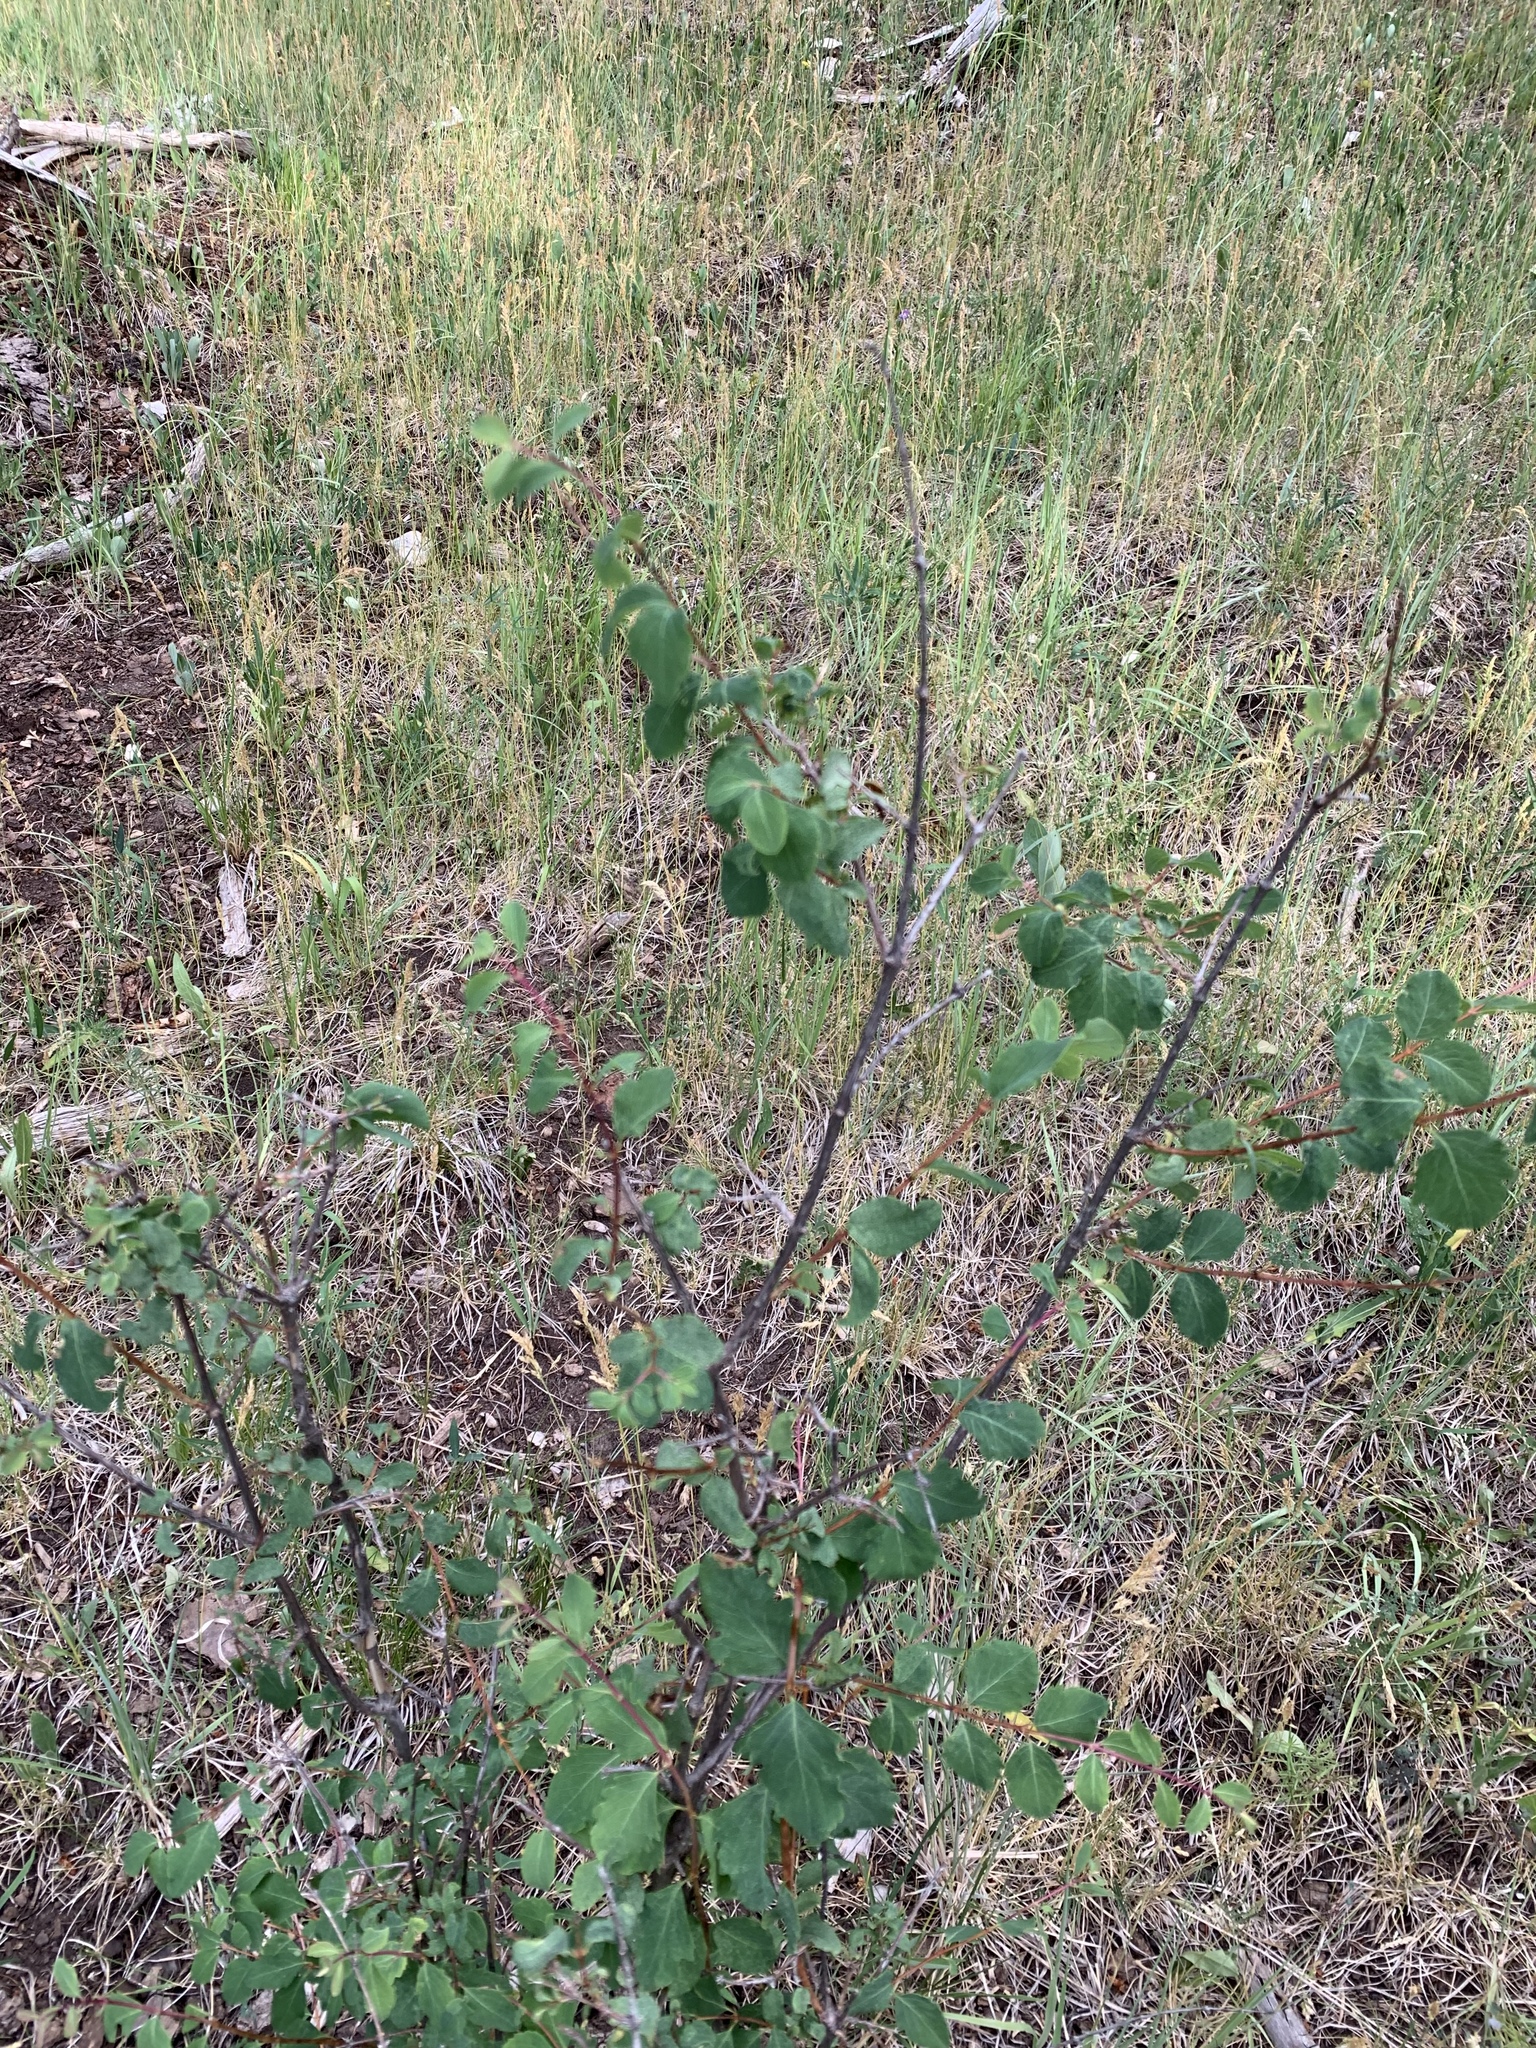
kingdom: Plantae
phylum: Tracheophyta
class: Magnoliopsida
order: Fabales
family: Fabaceae
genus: Robinia
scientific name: Robinia neomexicana
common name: New mexico locust
